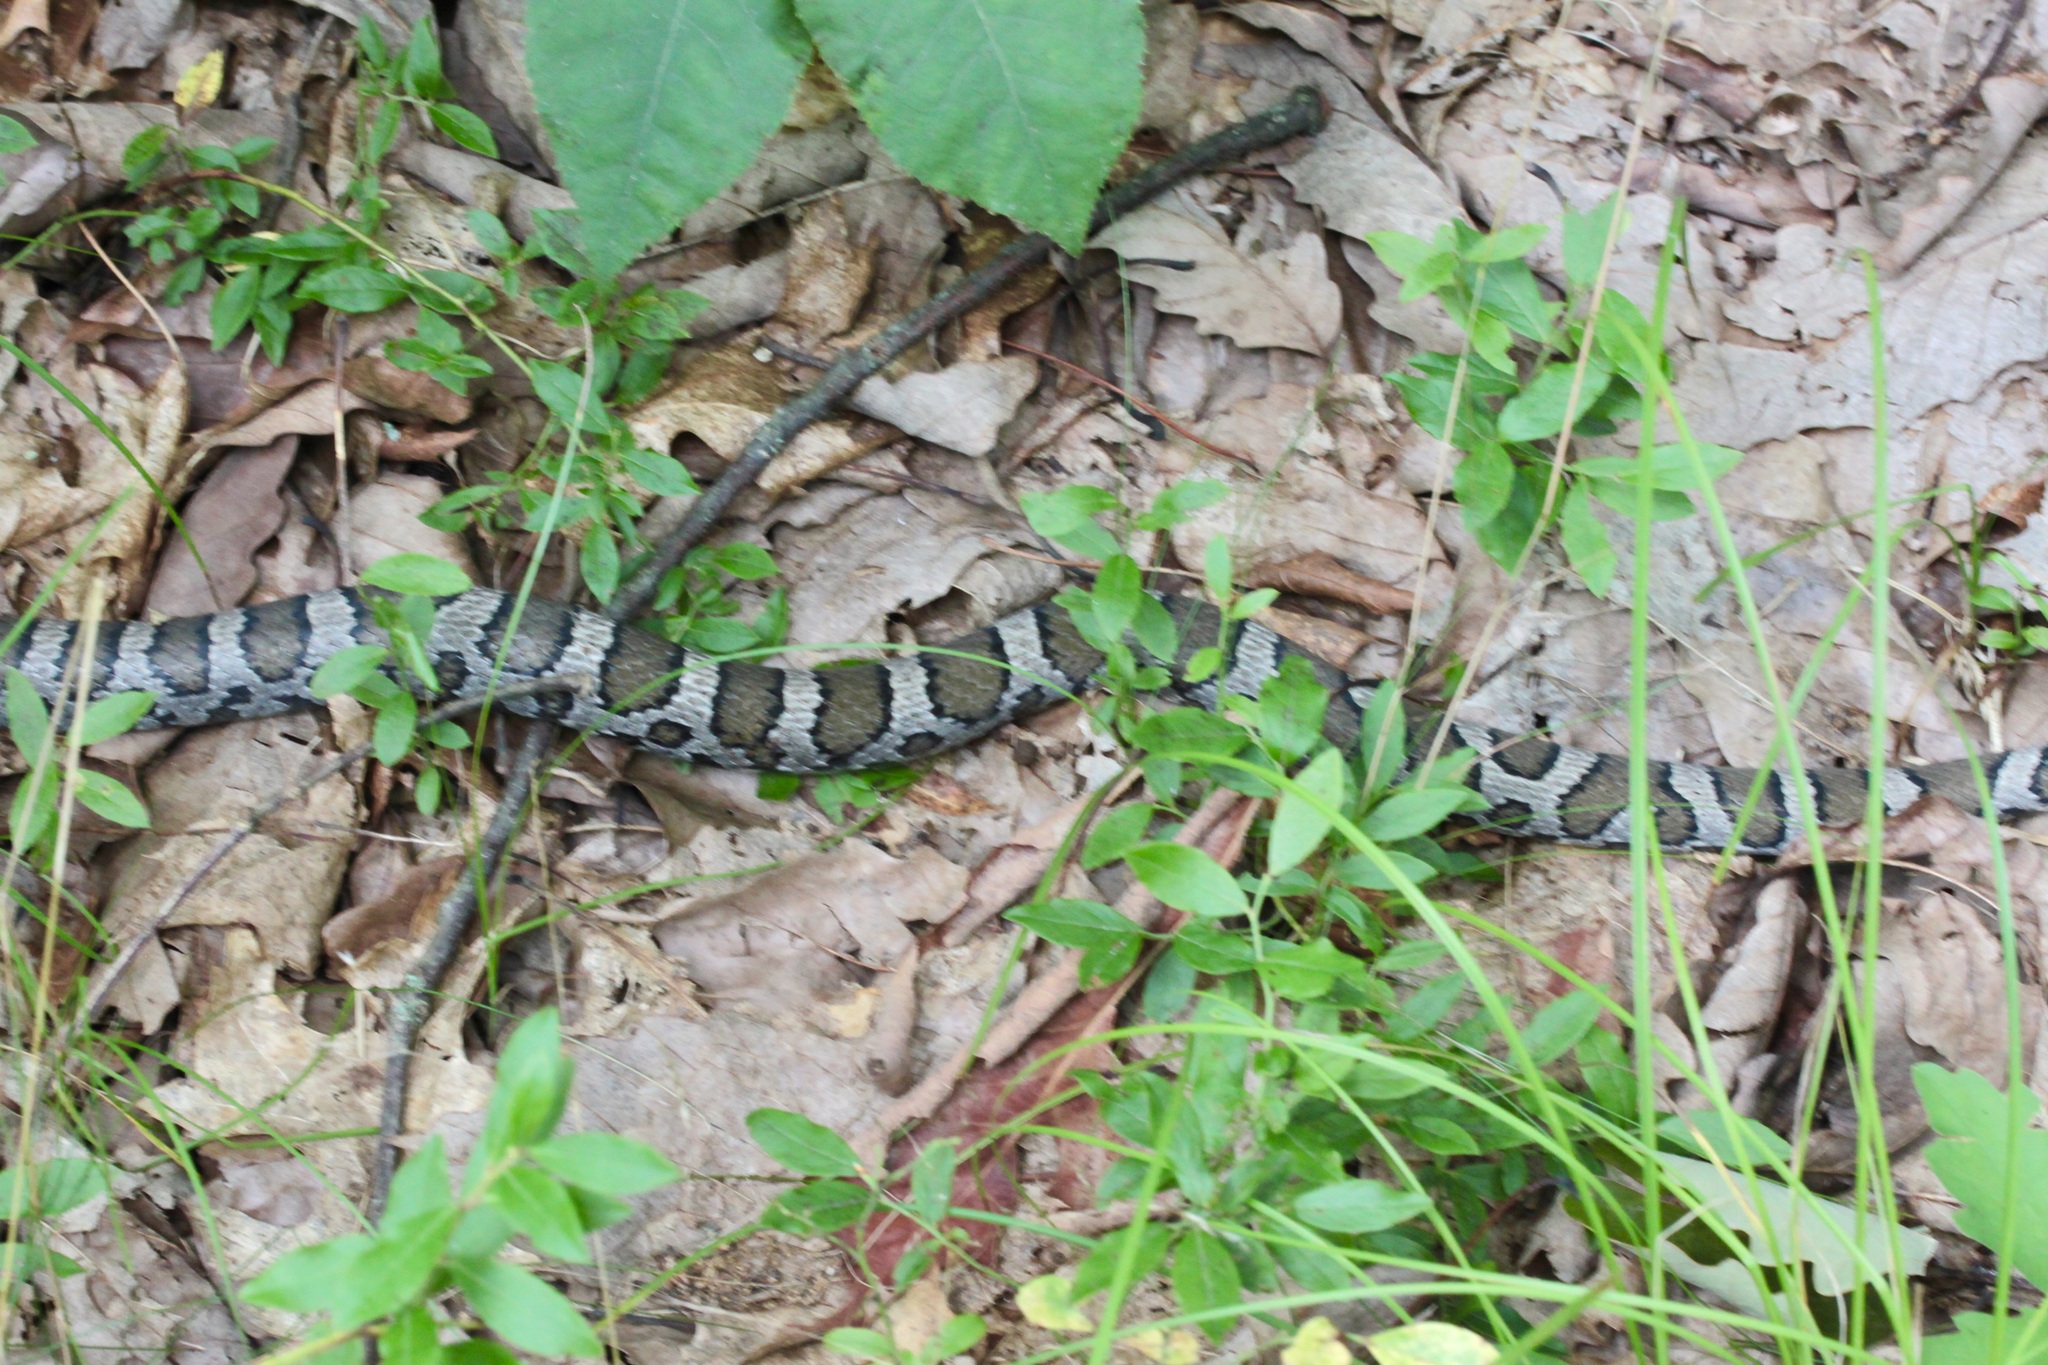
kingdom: Animalia
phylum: Chordata
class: Squamata
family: Colubridae
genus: Lampropeltis
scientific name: Lampropeltis triangulum
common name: Eastern milksnake
